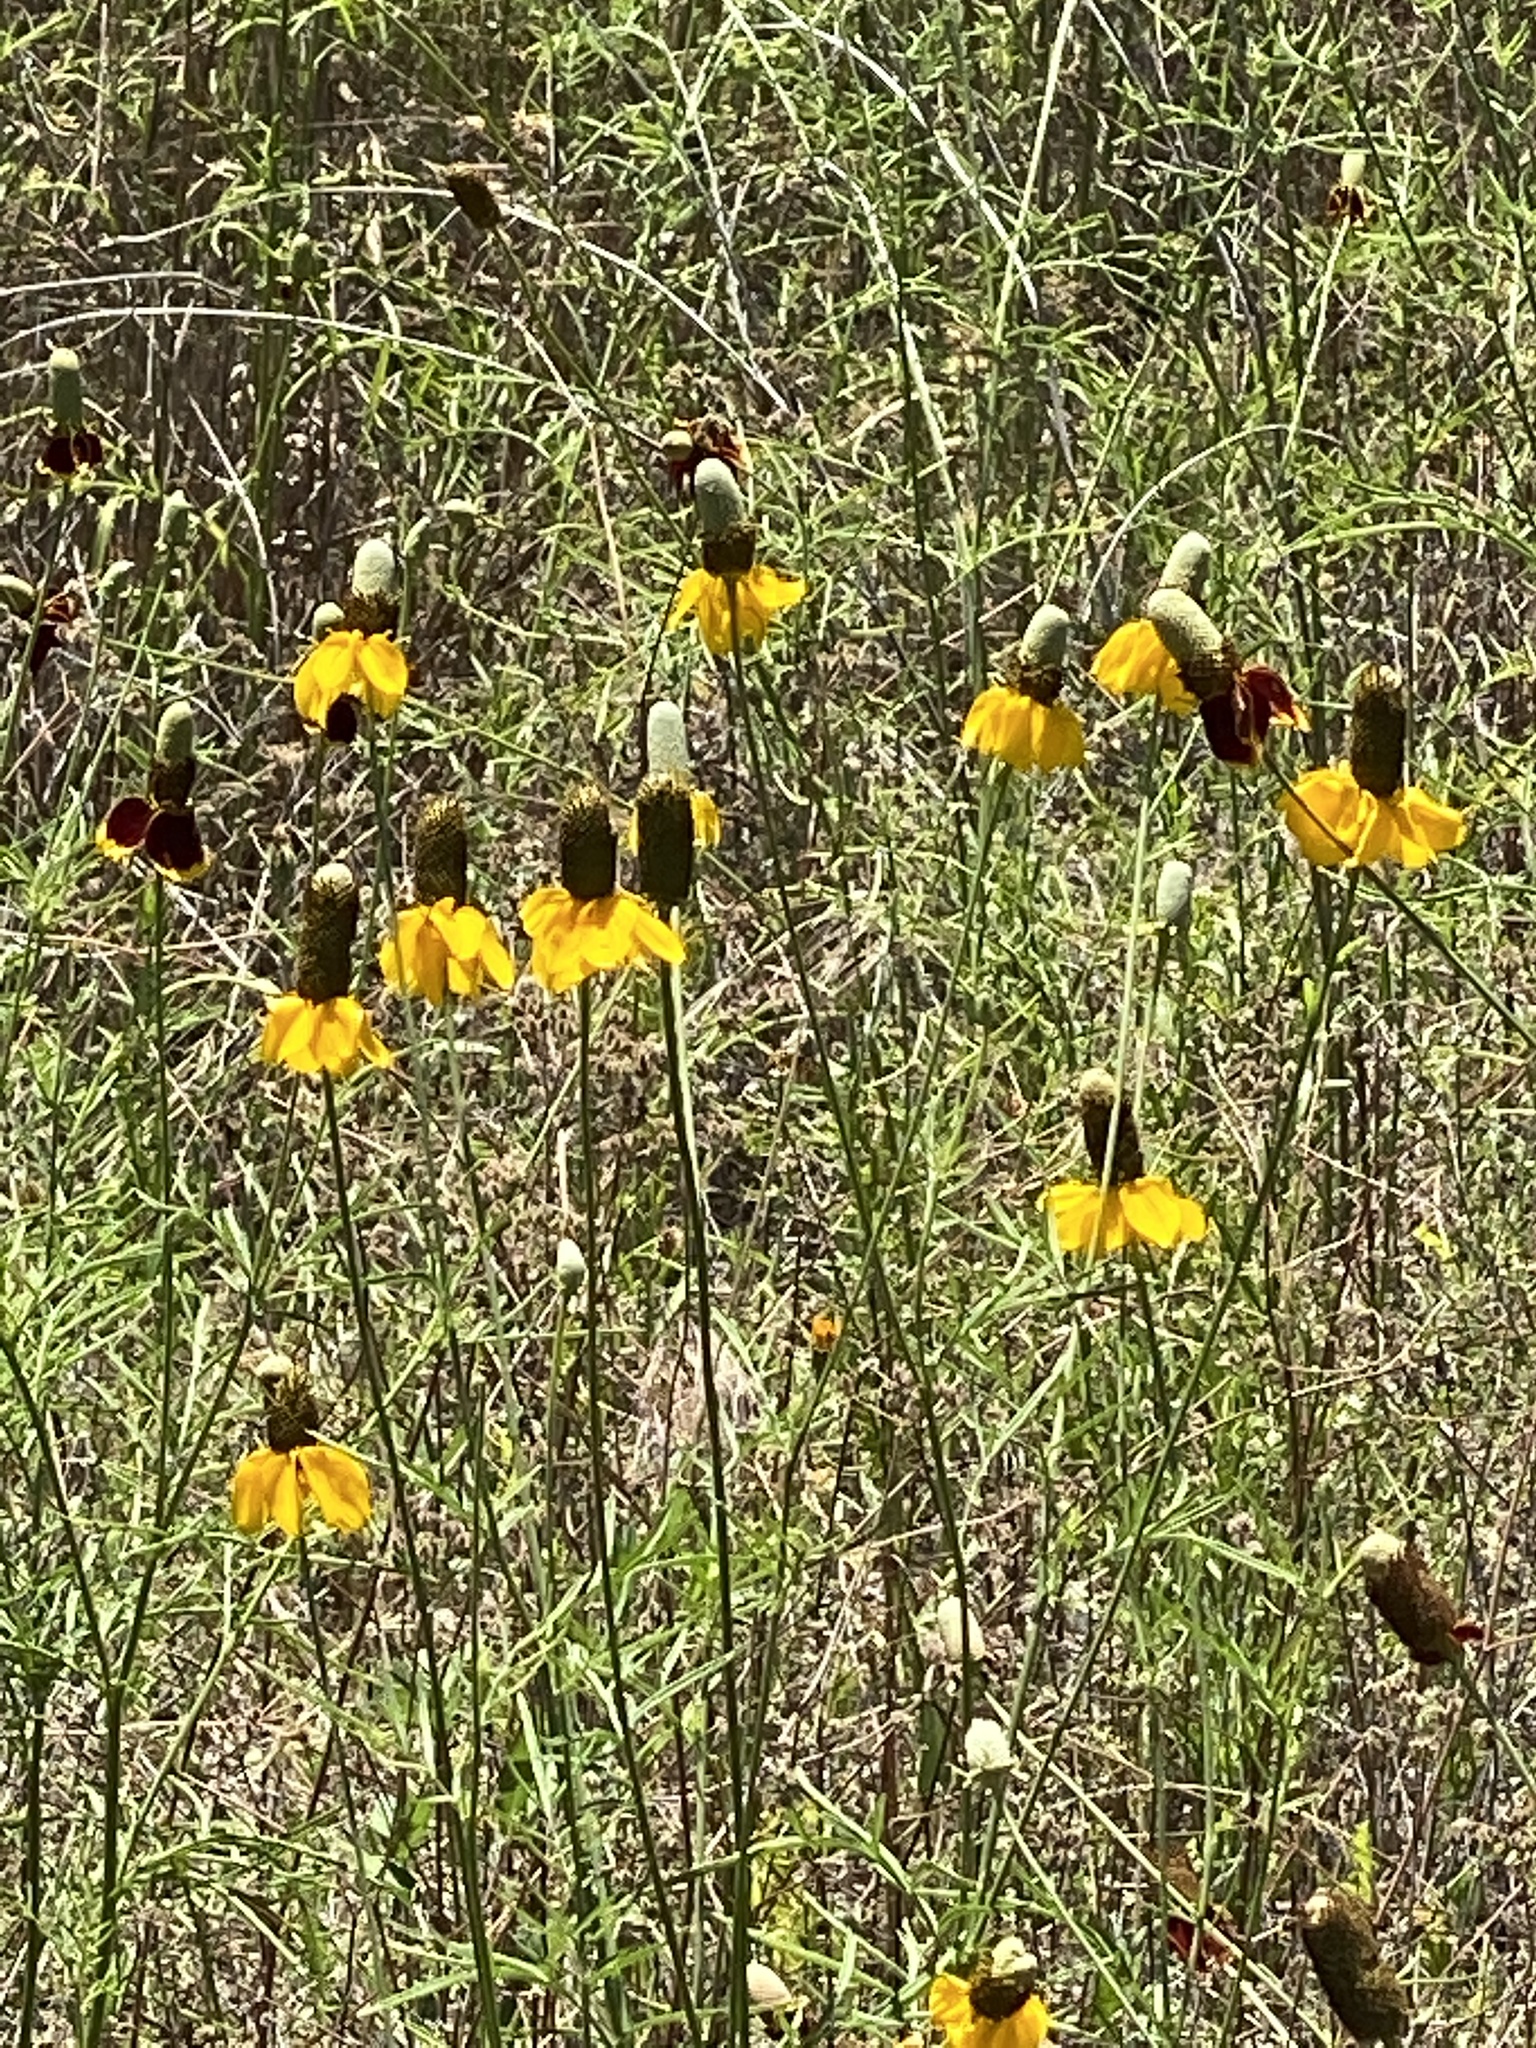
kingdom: Plantae
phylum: Tracheophyta
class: Magnoliopsida
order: Asterales
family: Asteraceae
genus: Ratibida
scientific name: Ratibida columnifera
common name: Prairie coneflower
